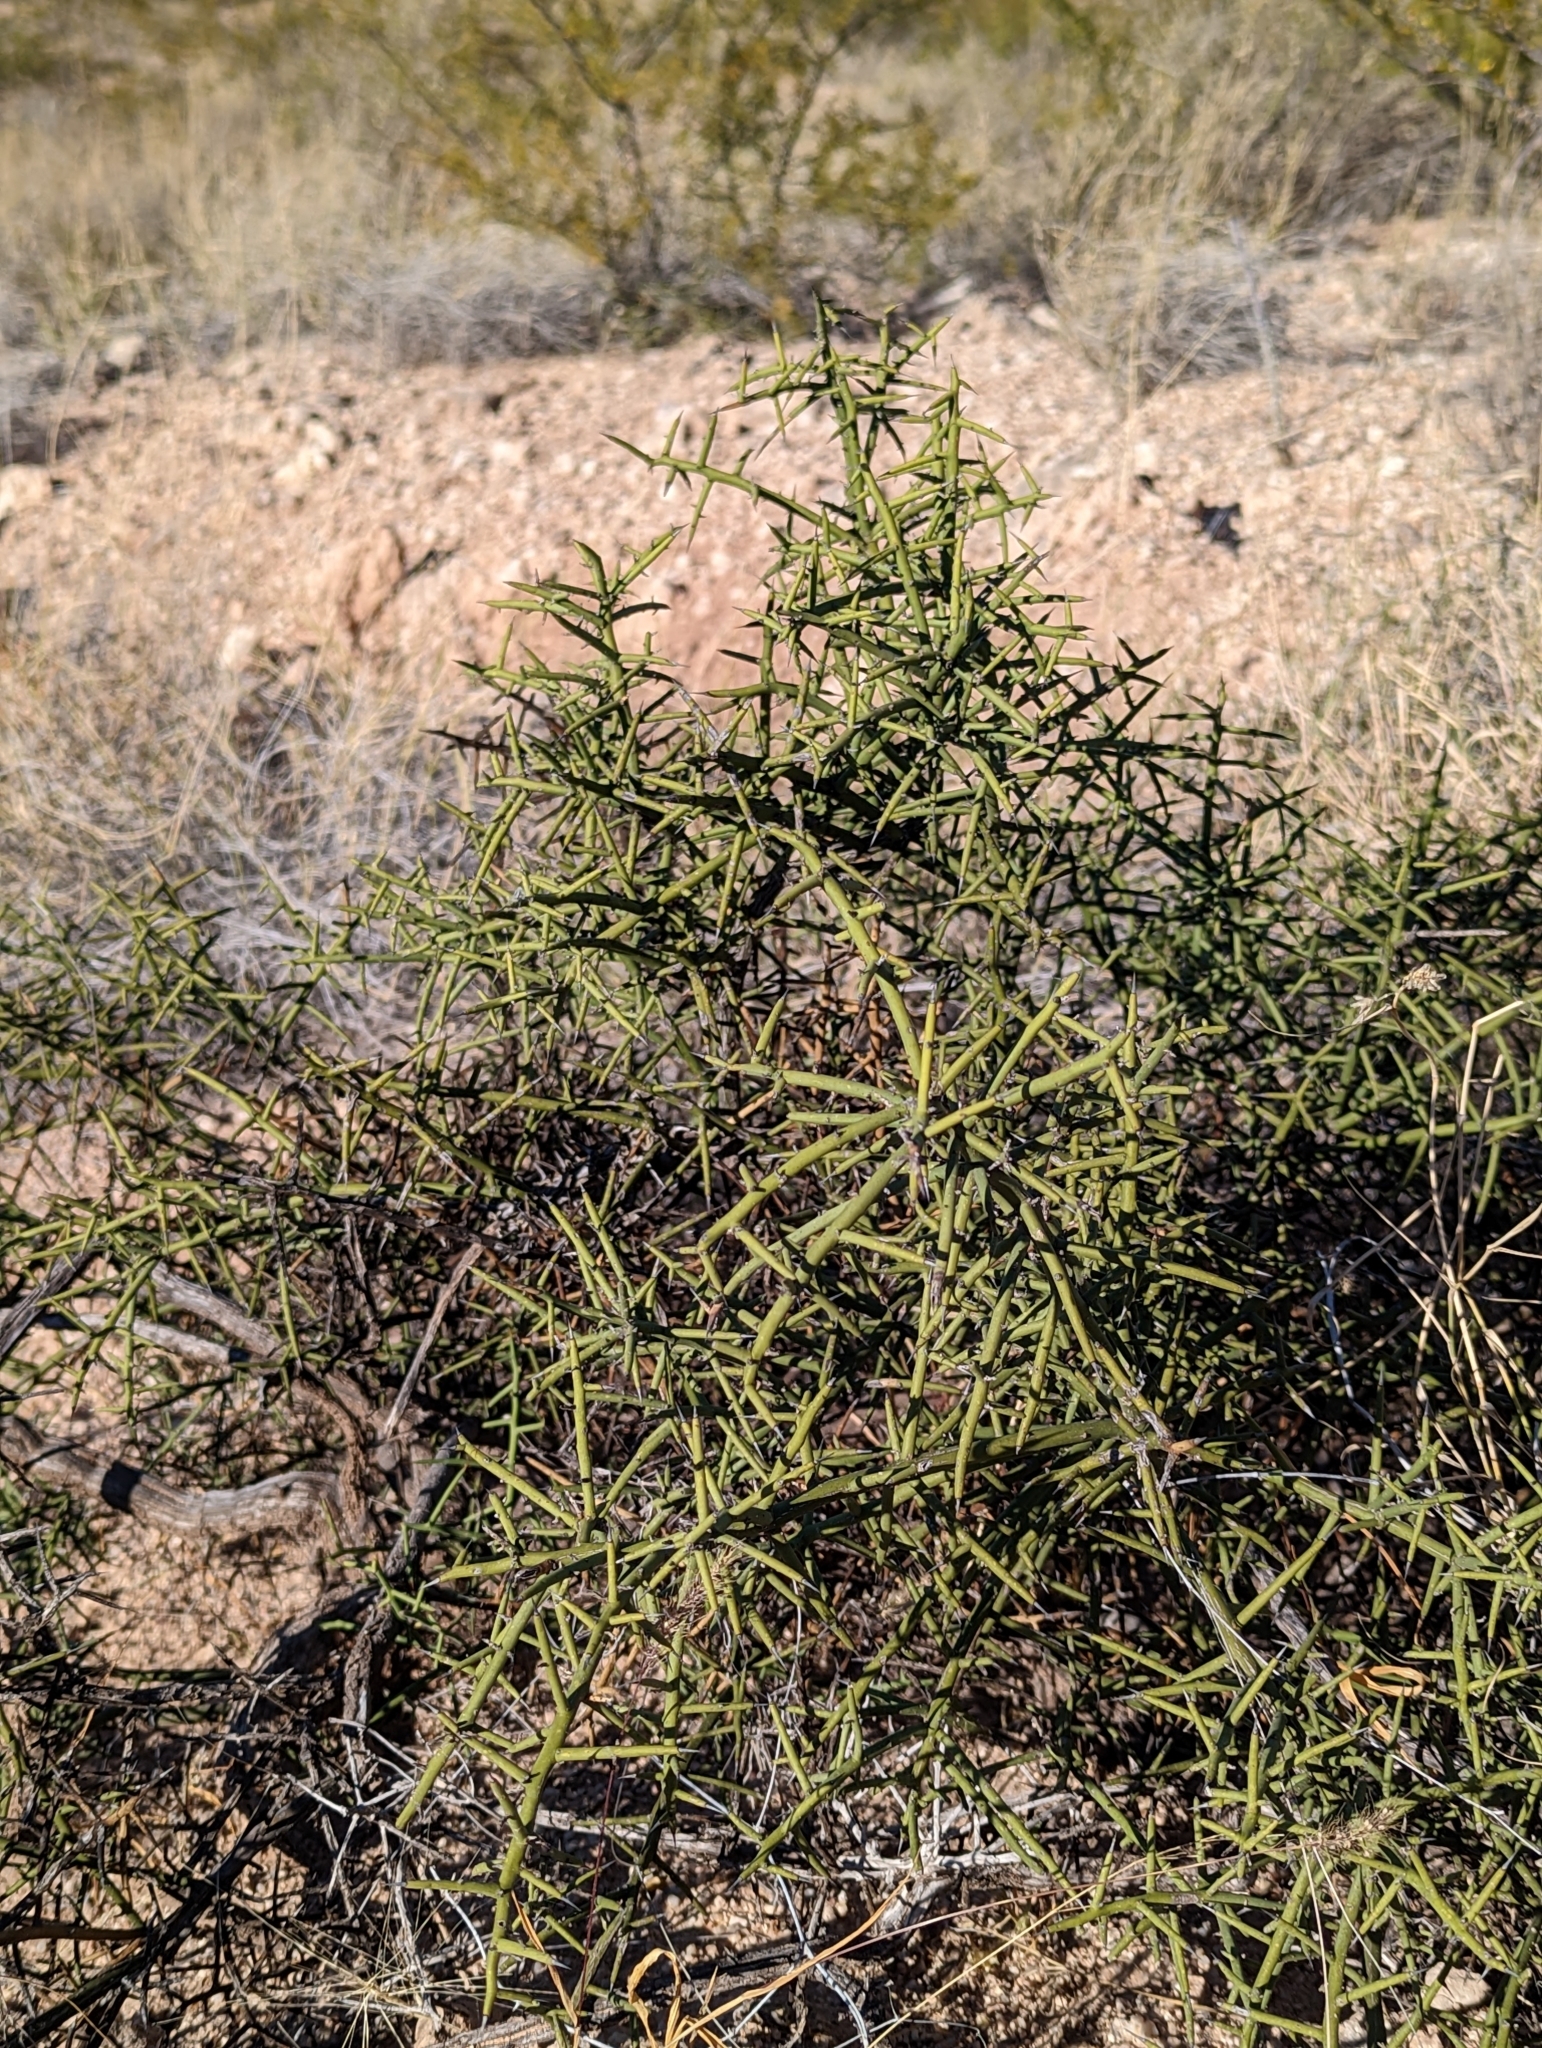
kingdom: Plantae
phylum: Tracheophyta
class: Magnoliopsida
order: Brassicales
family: Koeberliniaceae
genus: Koeberlinia
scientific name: Koeberlinia spinosa
